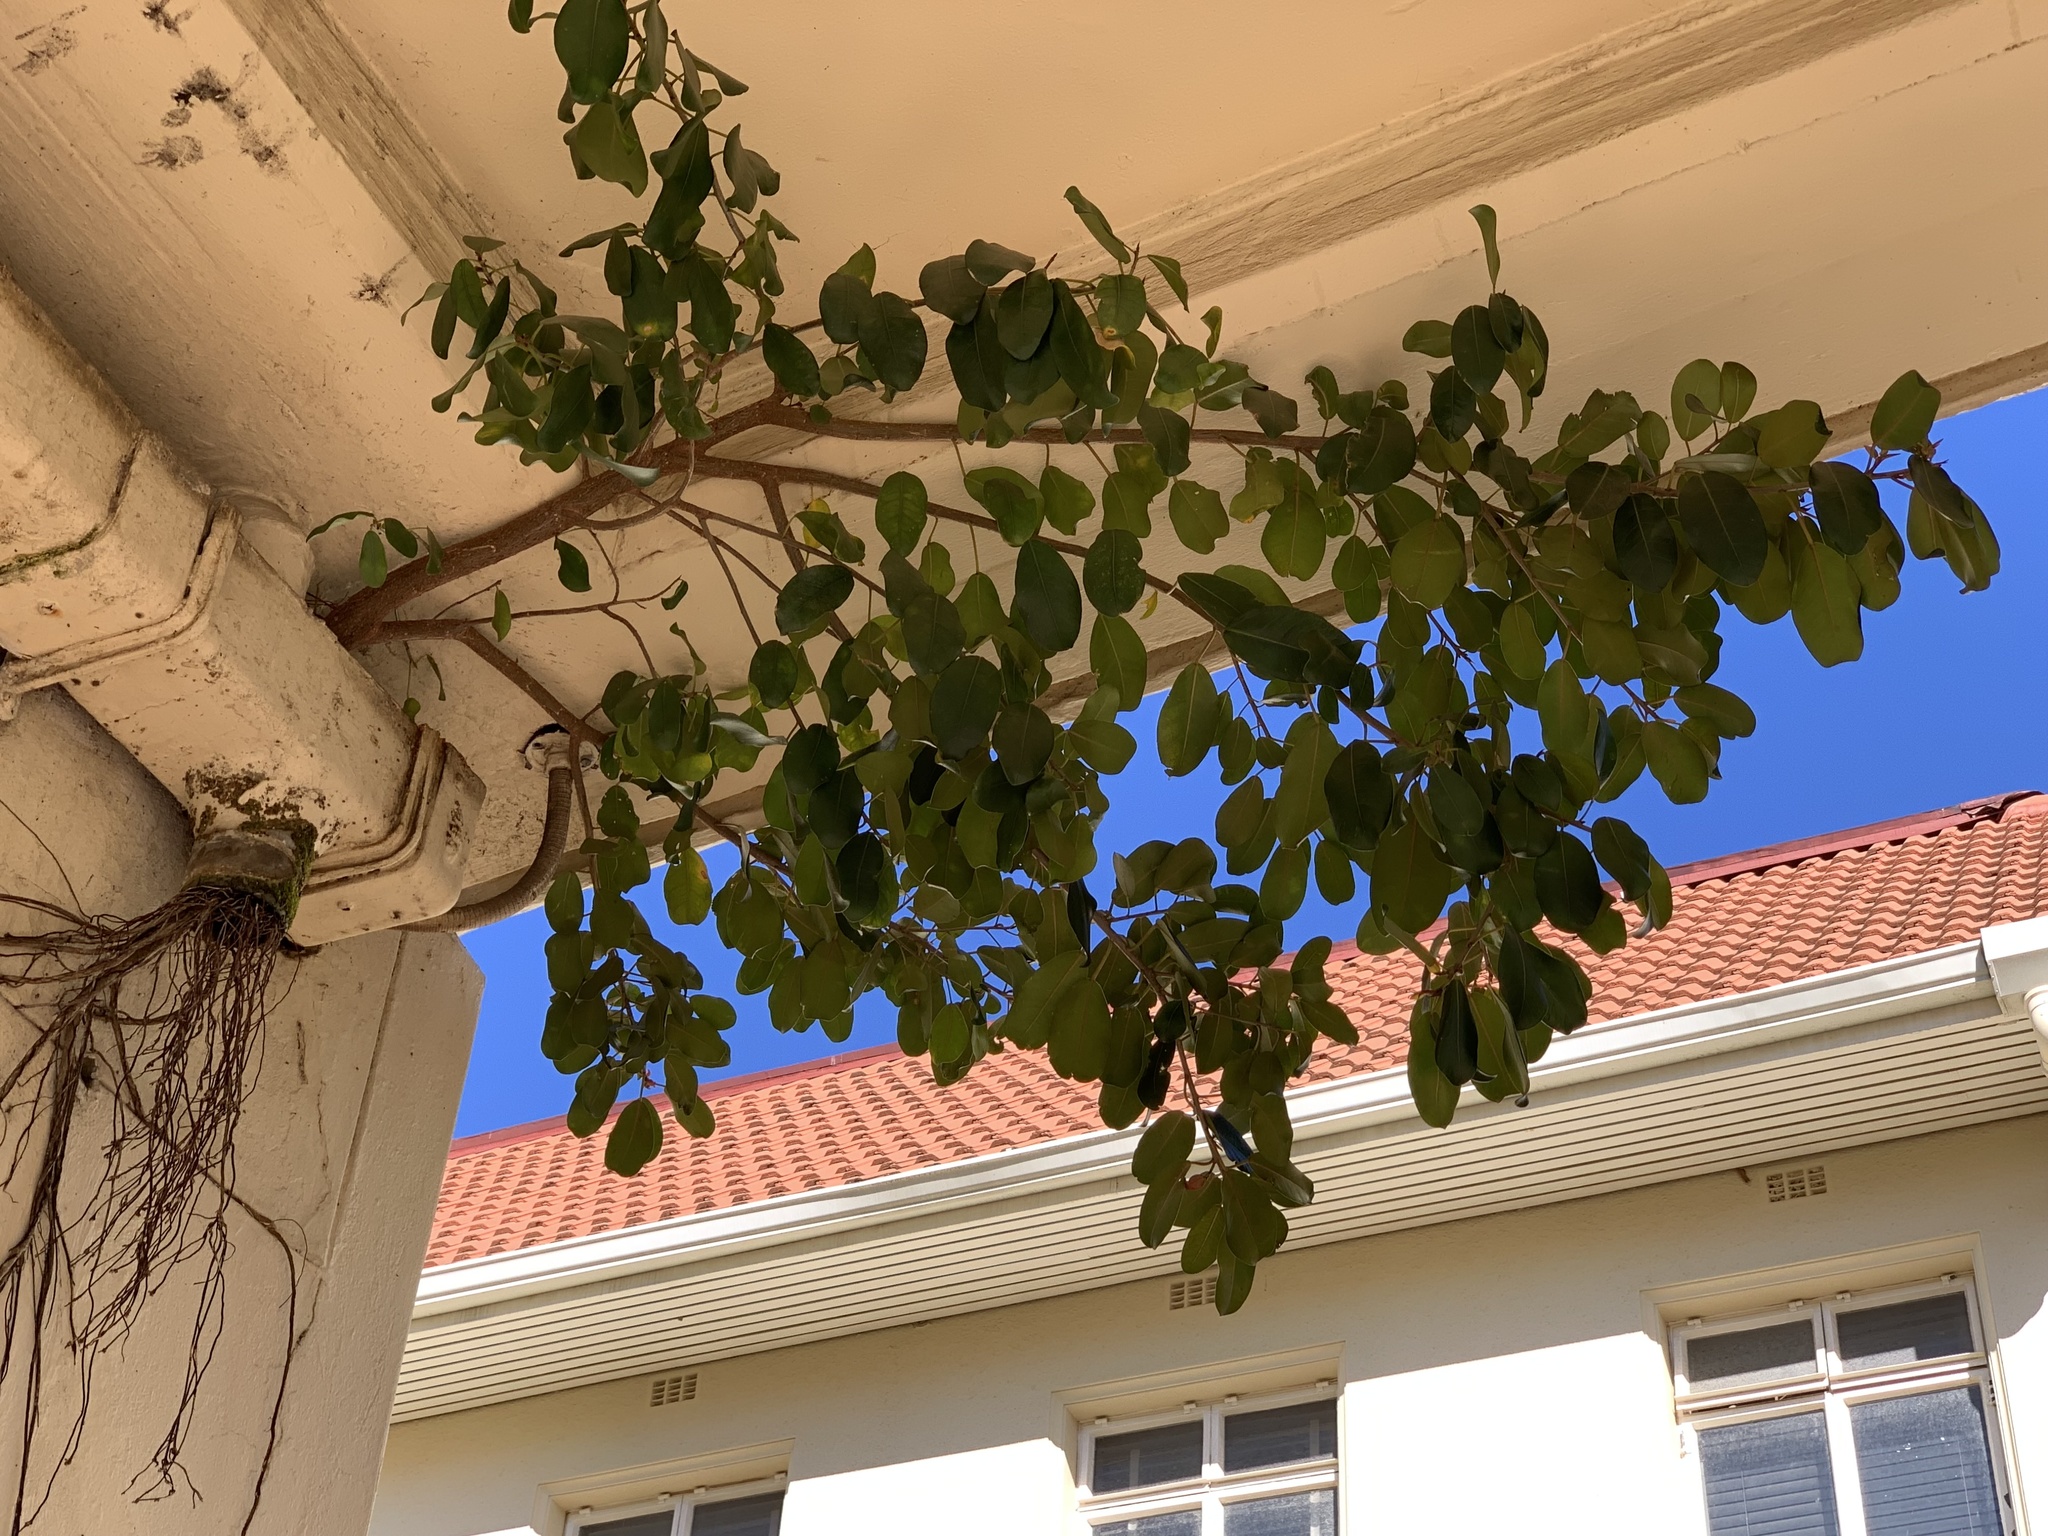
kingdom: Plantae
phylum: Tracheophyta
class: Magnoliopsida
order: Rosales
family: Moraceae
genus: Ficus
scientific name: Ficus thonningii
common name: Fig
